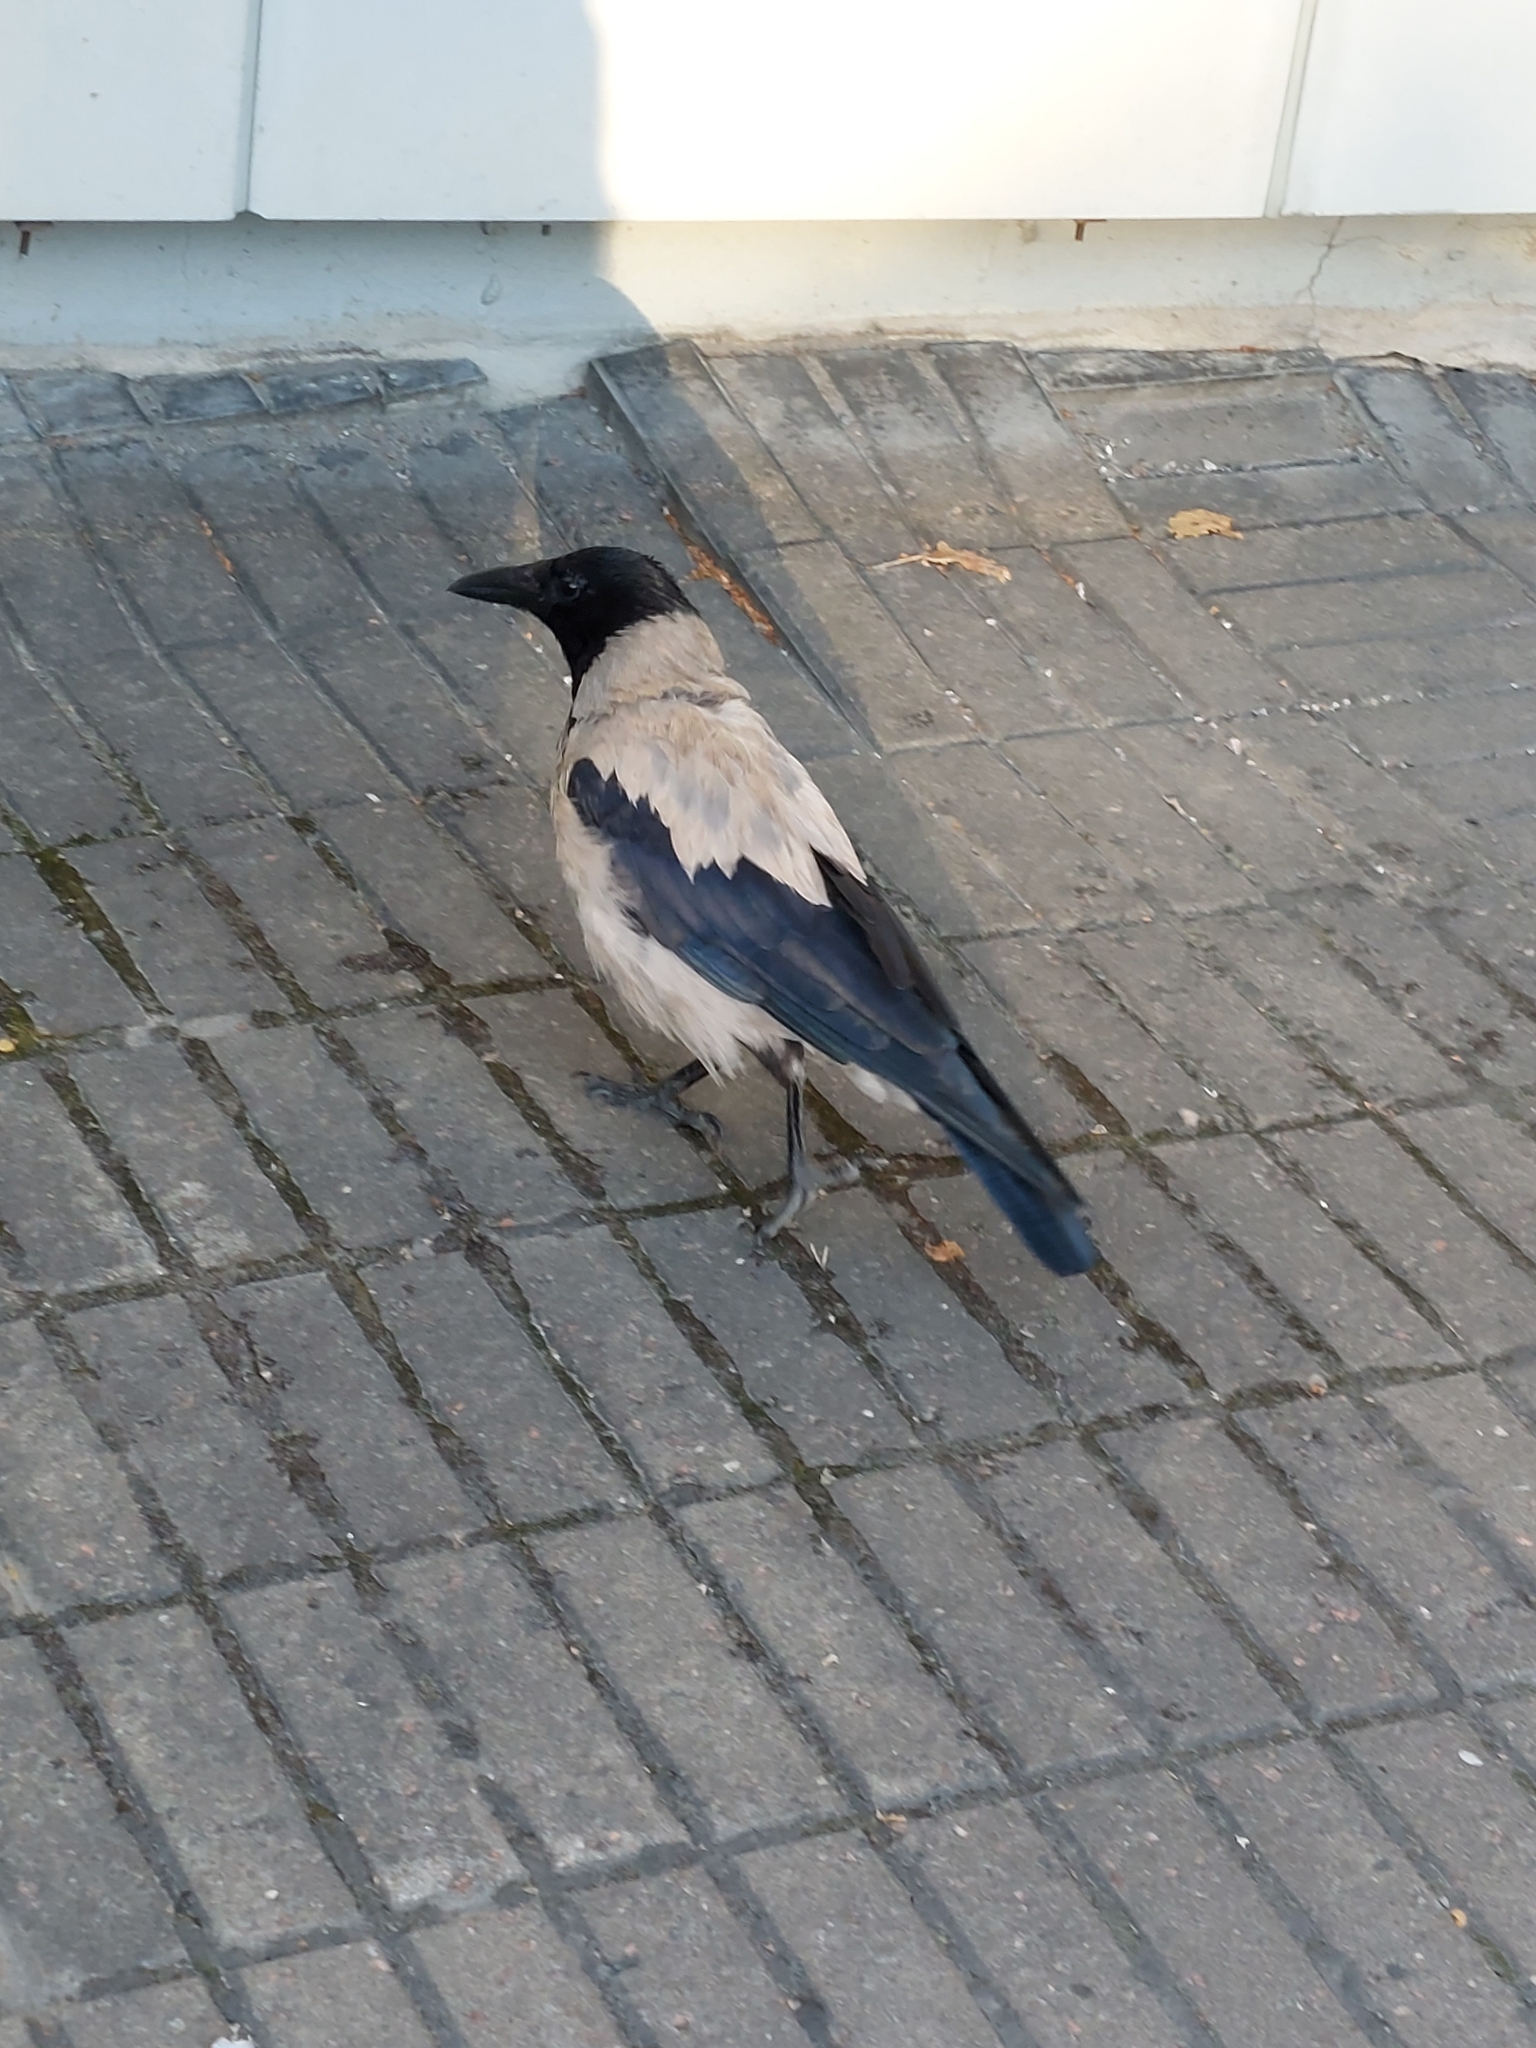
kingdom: Animalia
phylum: Chordata
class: Aves
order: Passeriformes
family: Corvidae
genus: Corvus
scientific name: Corvus cornix
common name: Hooded crow
